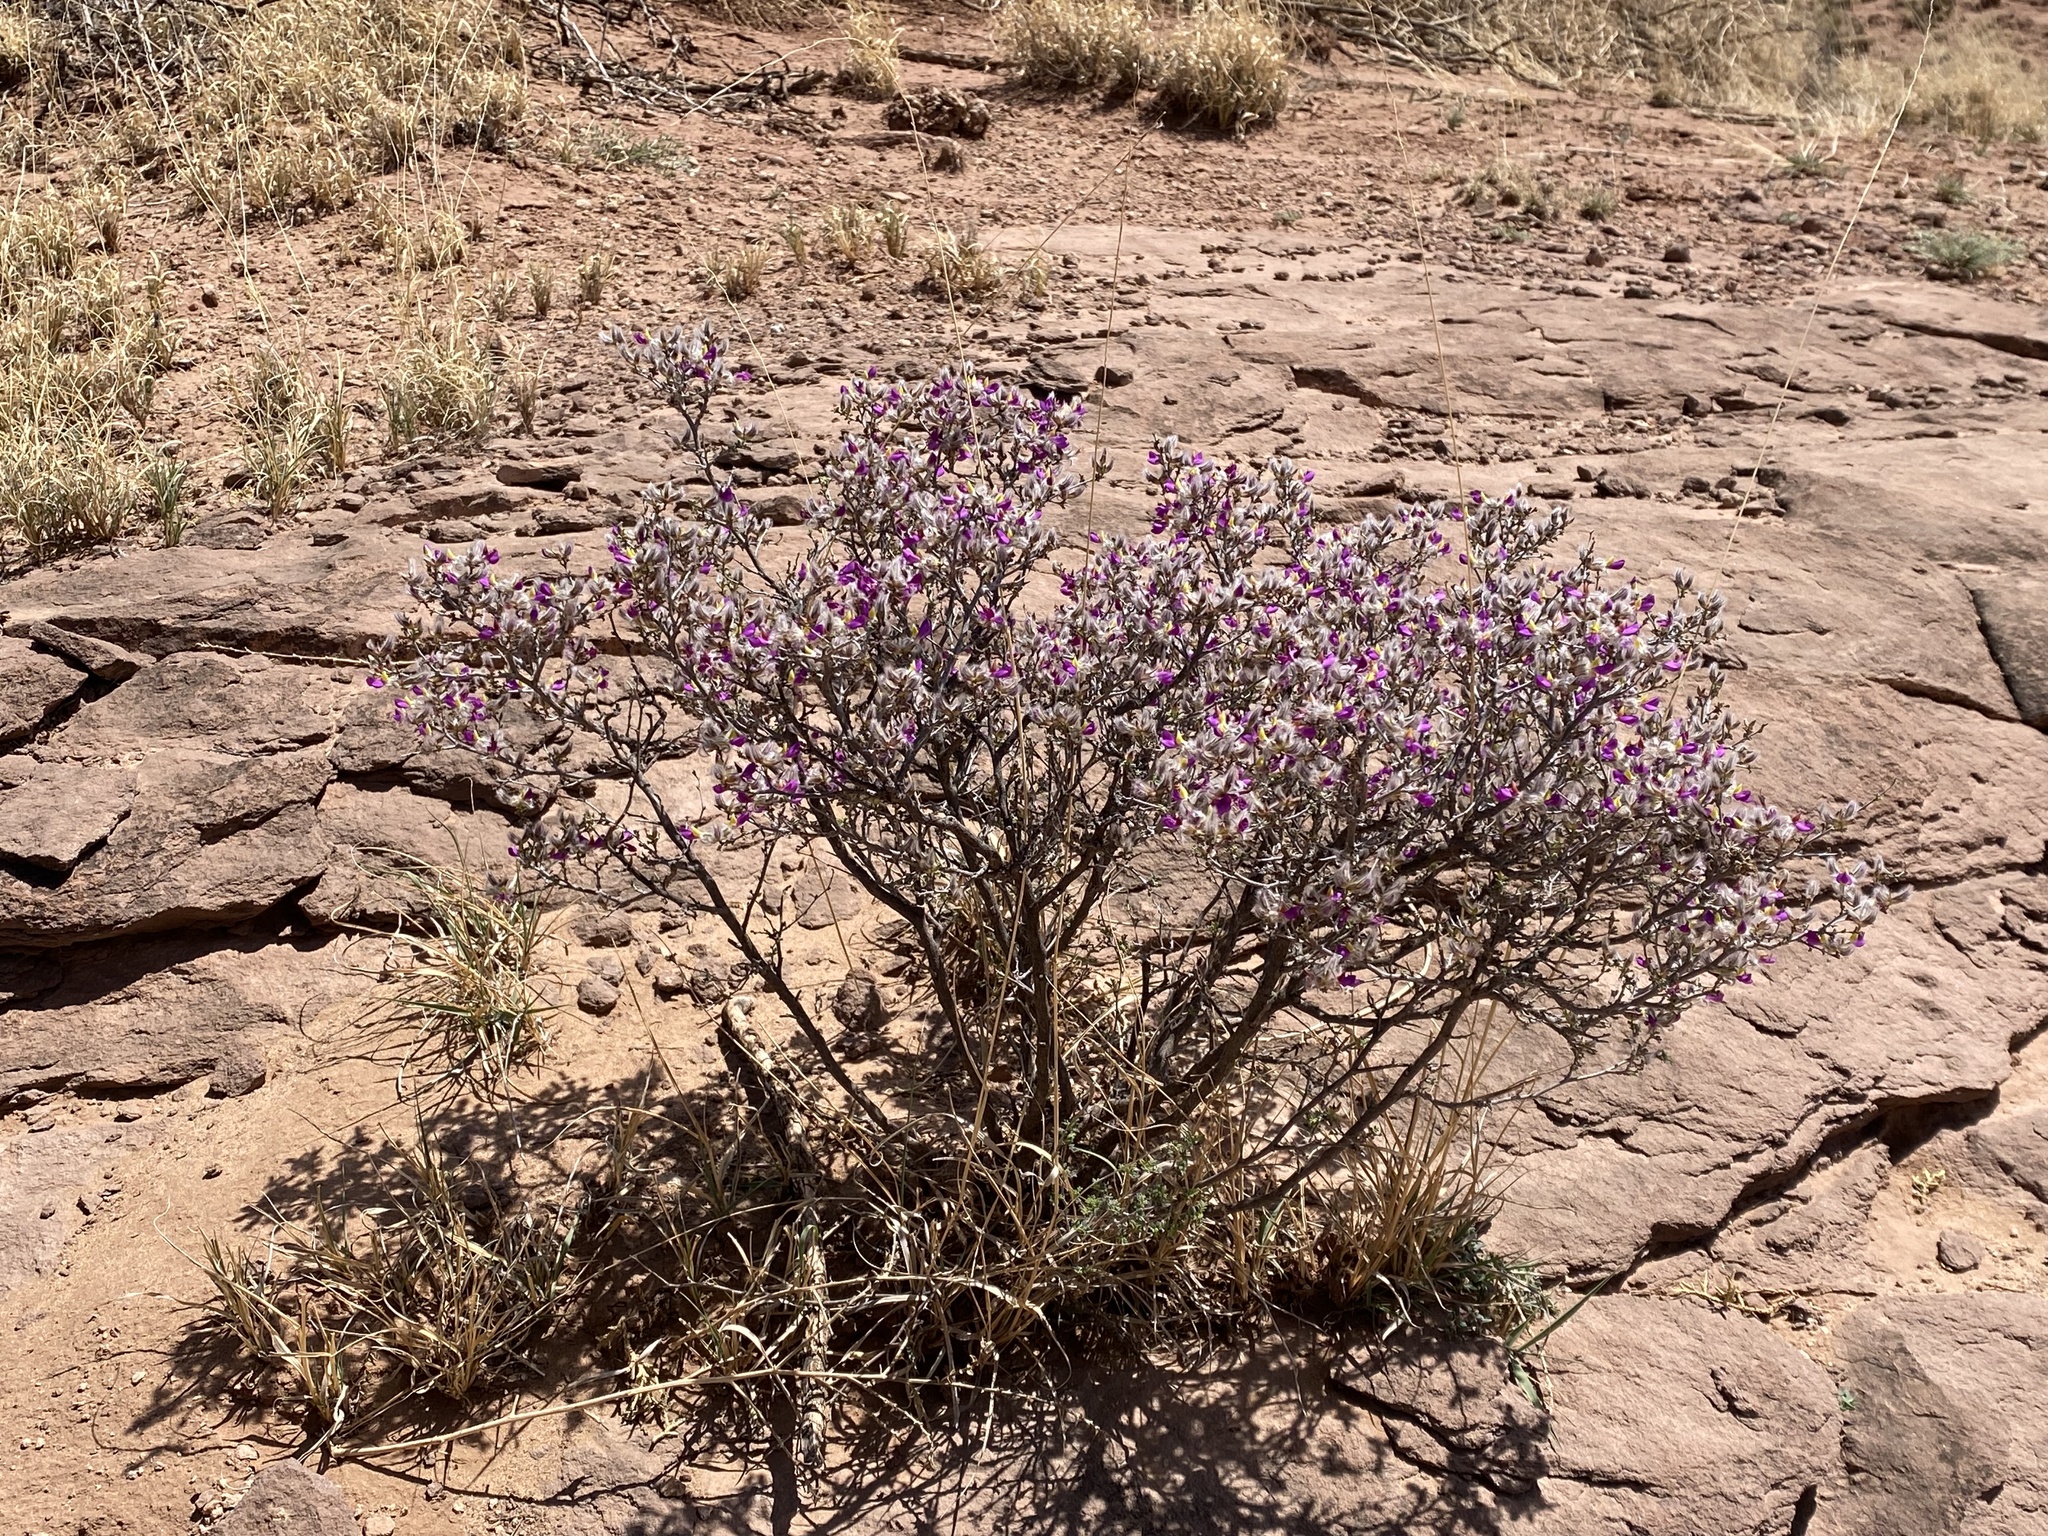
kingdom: Plantae
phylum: Tracheophyta
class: Magnoliopsida
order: Fabales
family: Fabaceae
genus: Dalea
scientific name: Dalea formosa
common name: Feather-plume dalea
